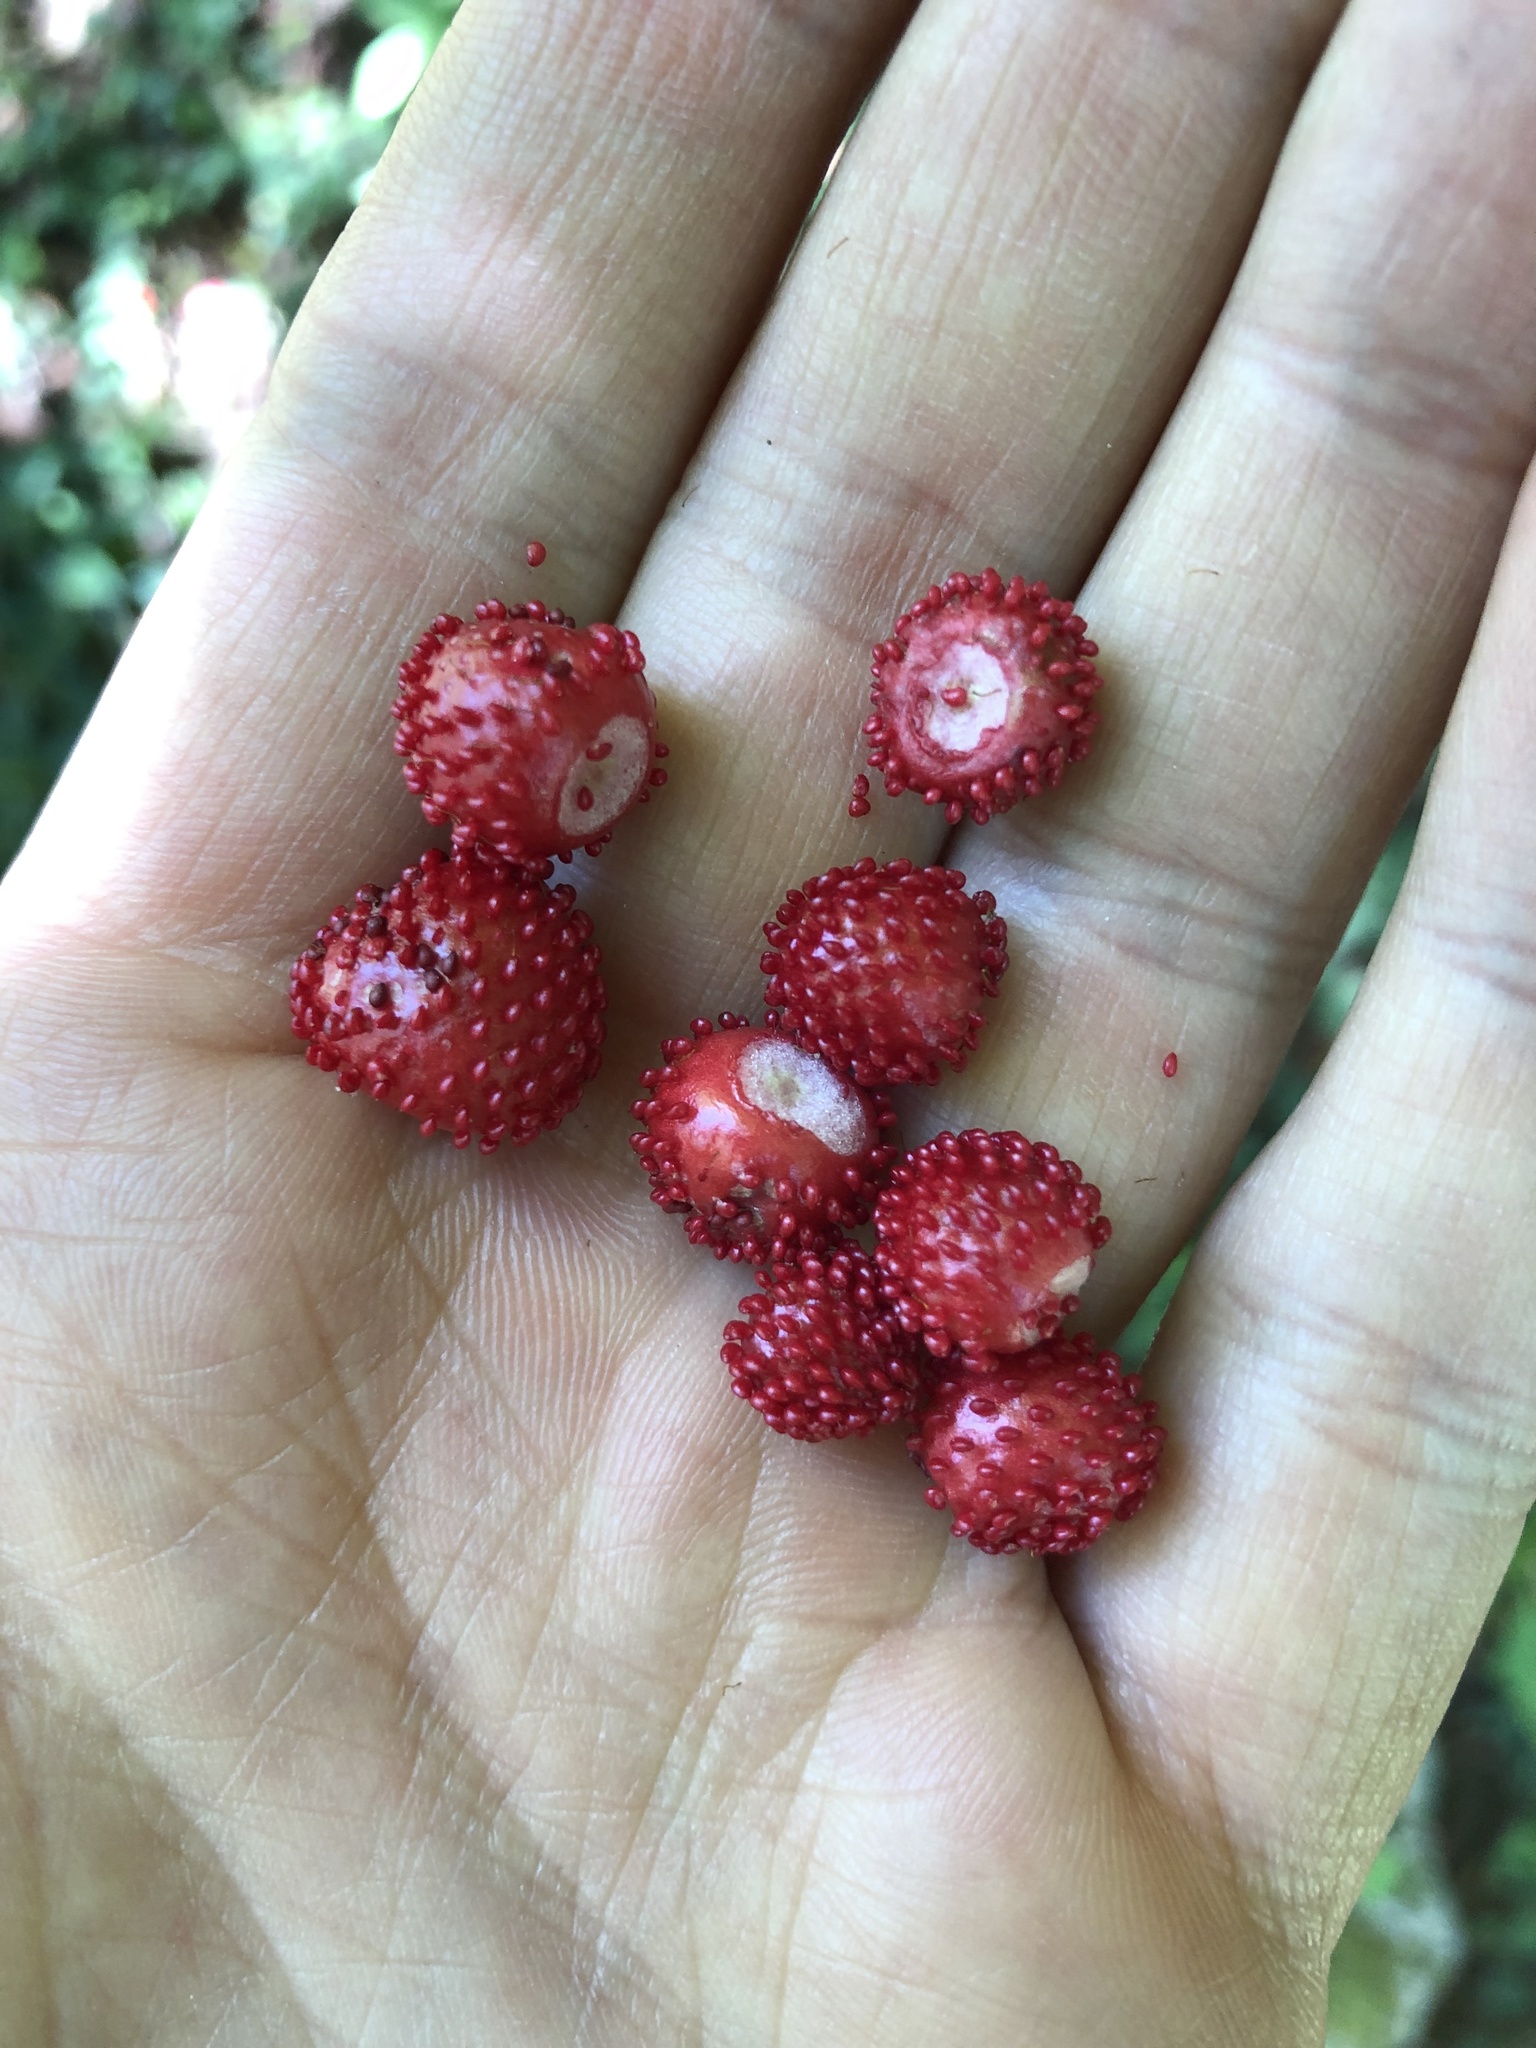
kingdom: Plantae
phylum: Tracheophyta
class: Magnoliopsida
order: Rosales
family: Rosaceae
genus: Potentilla
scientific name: Potentilla indica
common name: Yellow-flowered strawberry
